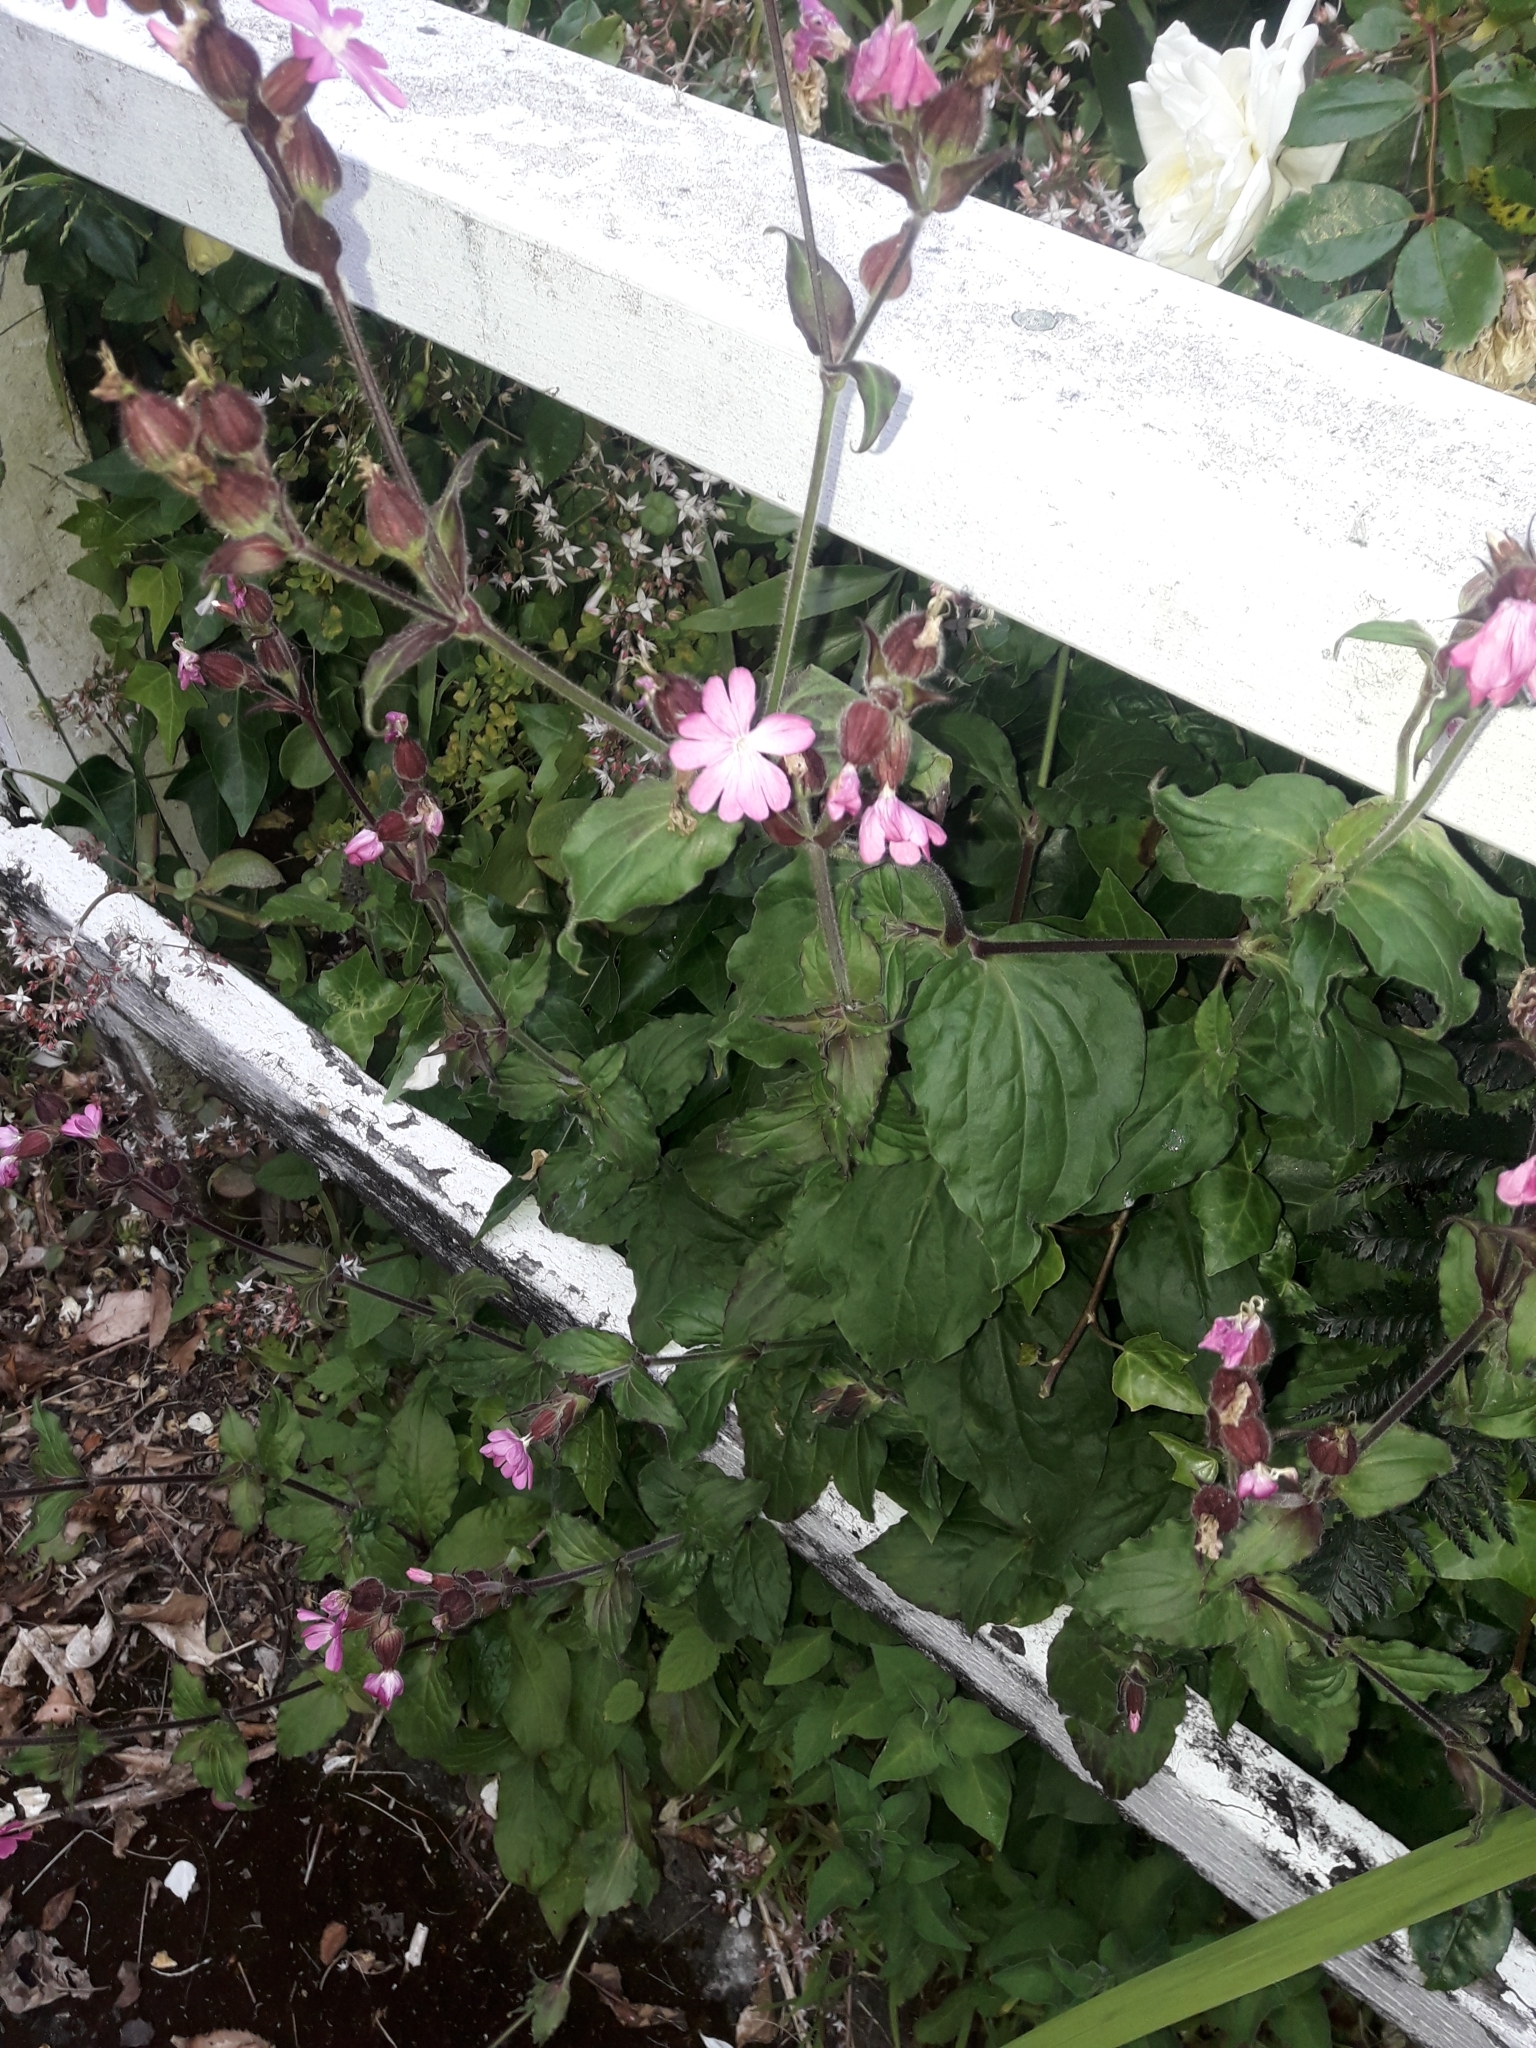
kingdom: Plantae
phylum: Tracheophyta
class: Magnoliopsida
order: Caryophyllales
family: Caryophyllaceae
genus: Silene
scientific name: Silene dioica
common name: Red campion
